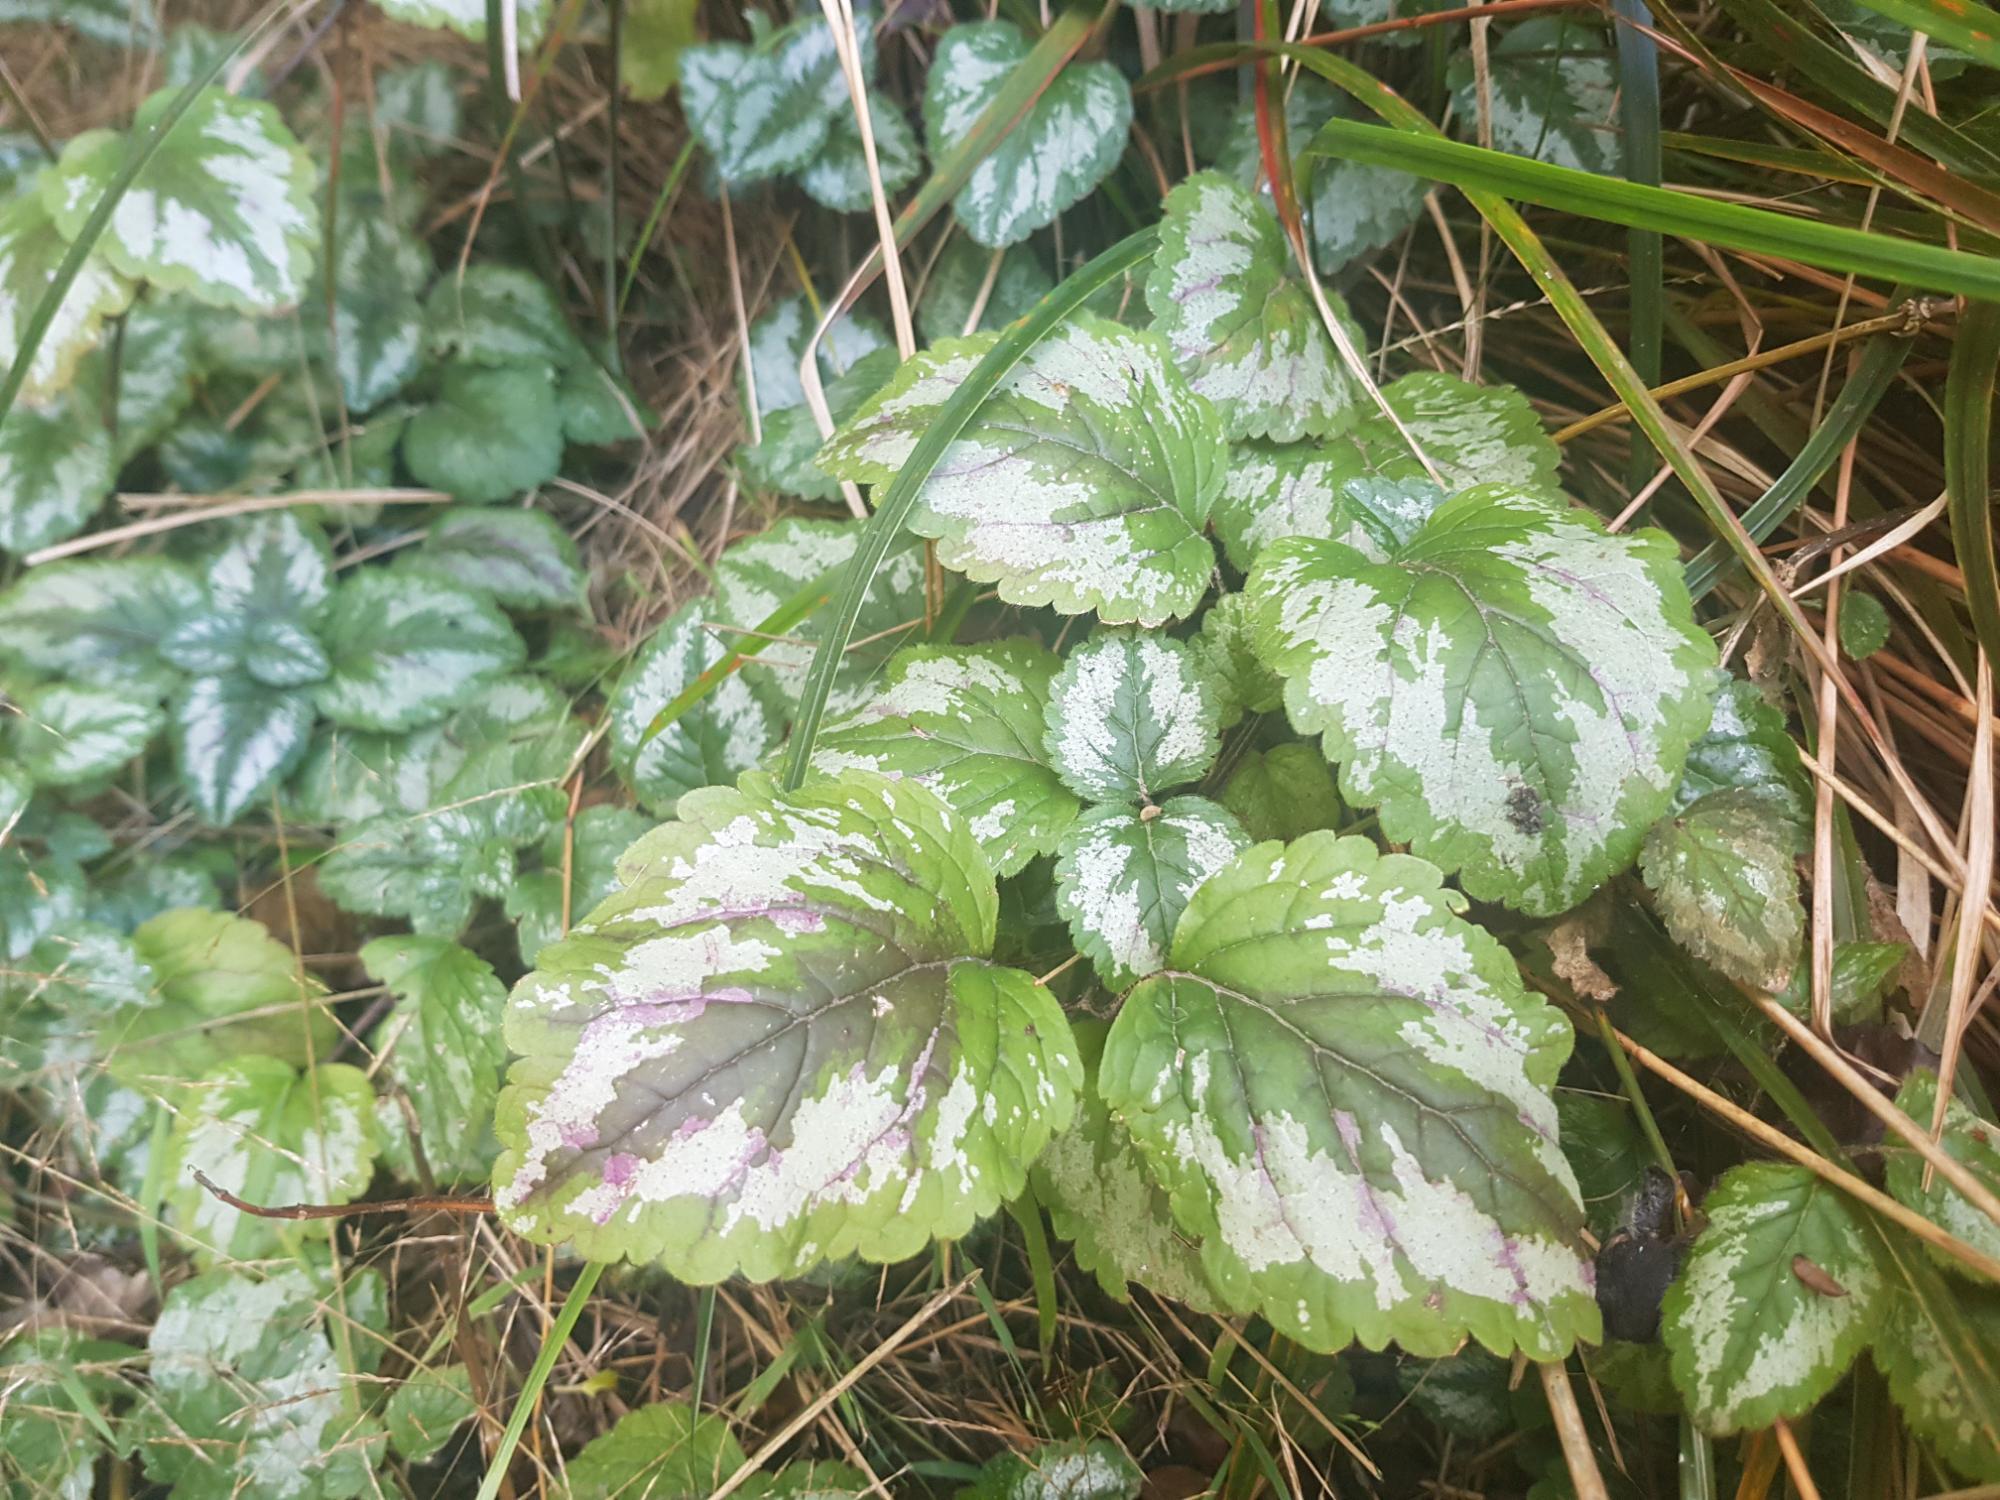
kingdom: Plantae
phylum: Tracheophyta
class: Magnoliopsida
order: Lamiales
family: Lamiaceae
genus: Lamium
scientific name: Lamium galeobdolon
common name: Yellow archangel
